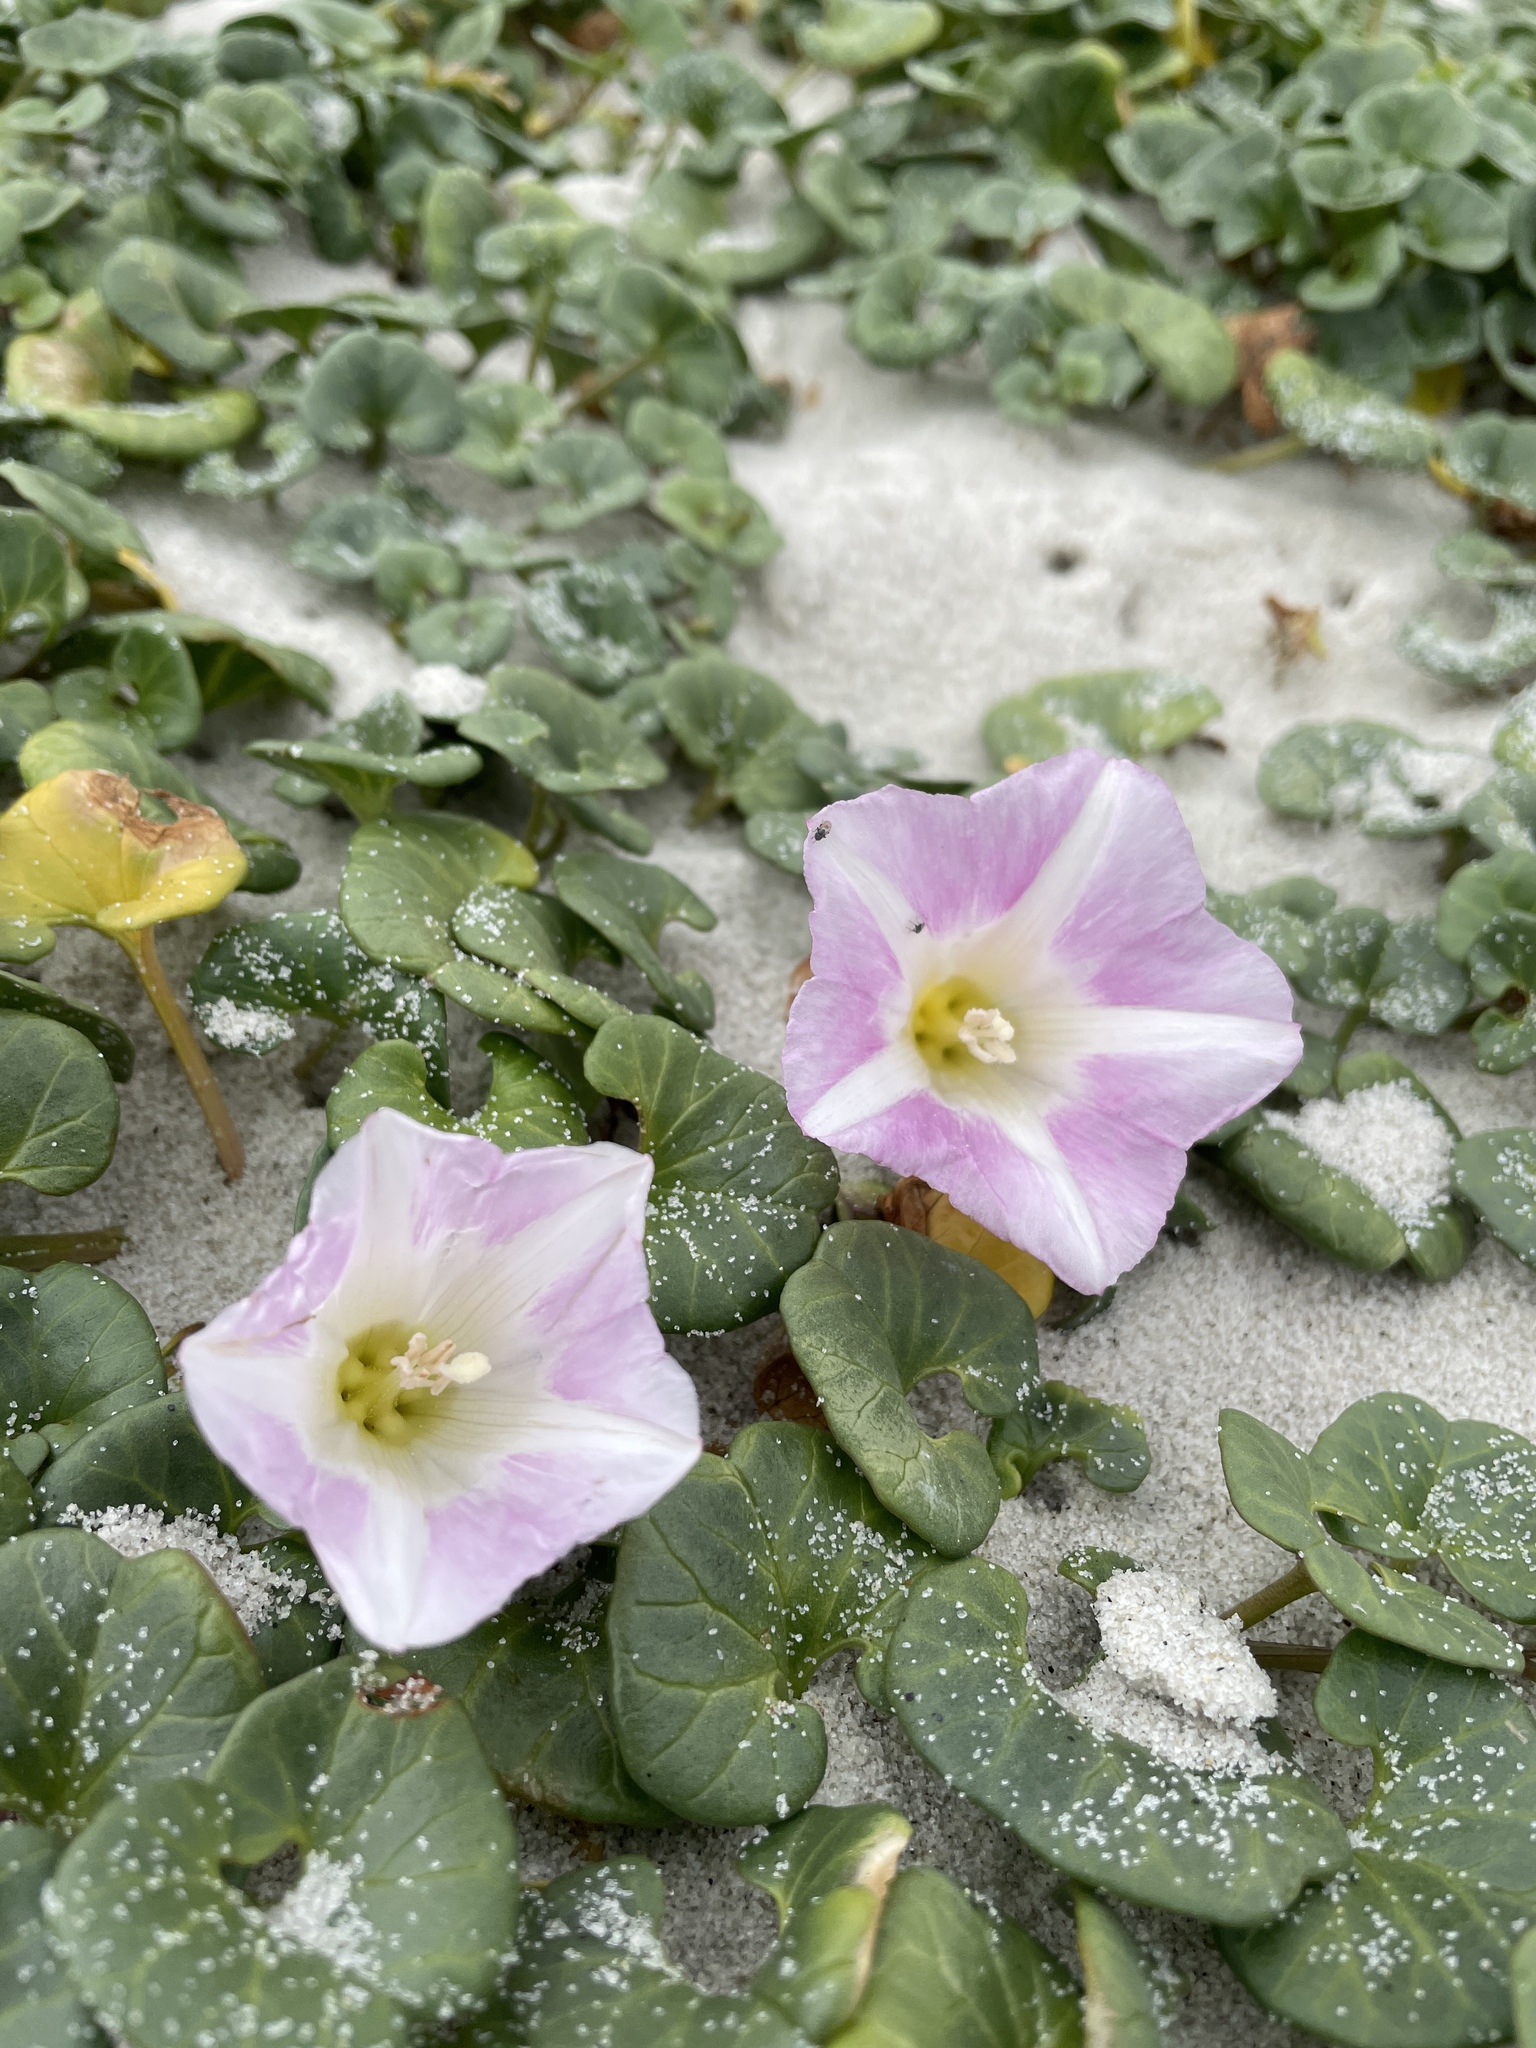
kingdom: Plantae
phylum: Tracheophyta
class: Magnoliopsida
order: Solanales
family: Convolvulaceae
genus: Calystegia
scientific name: Calystegia soldanella
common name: Sea bindweed
